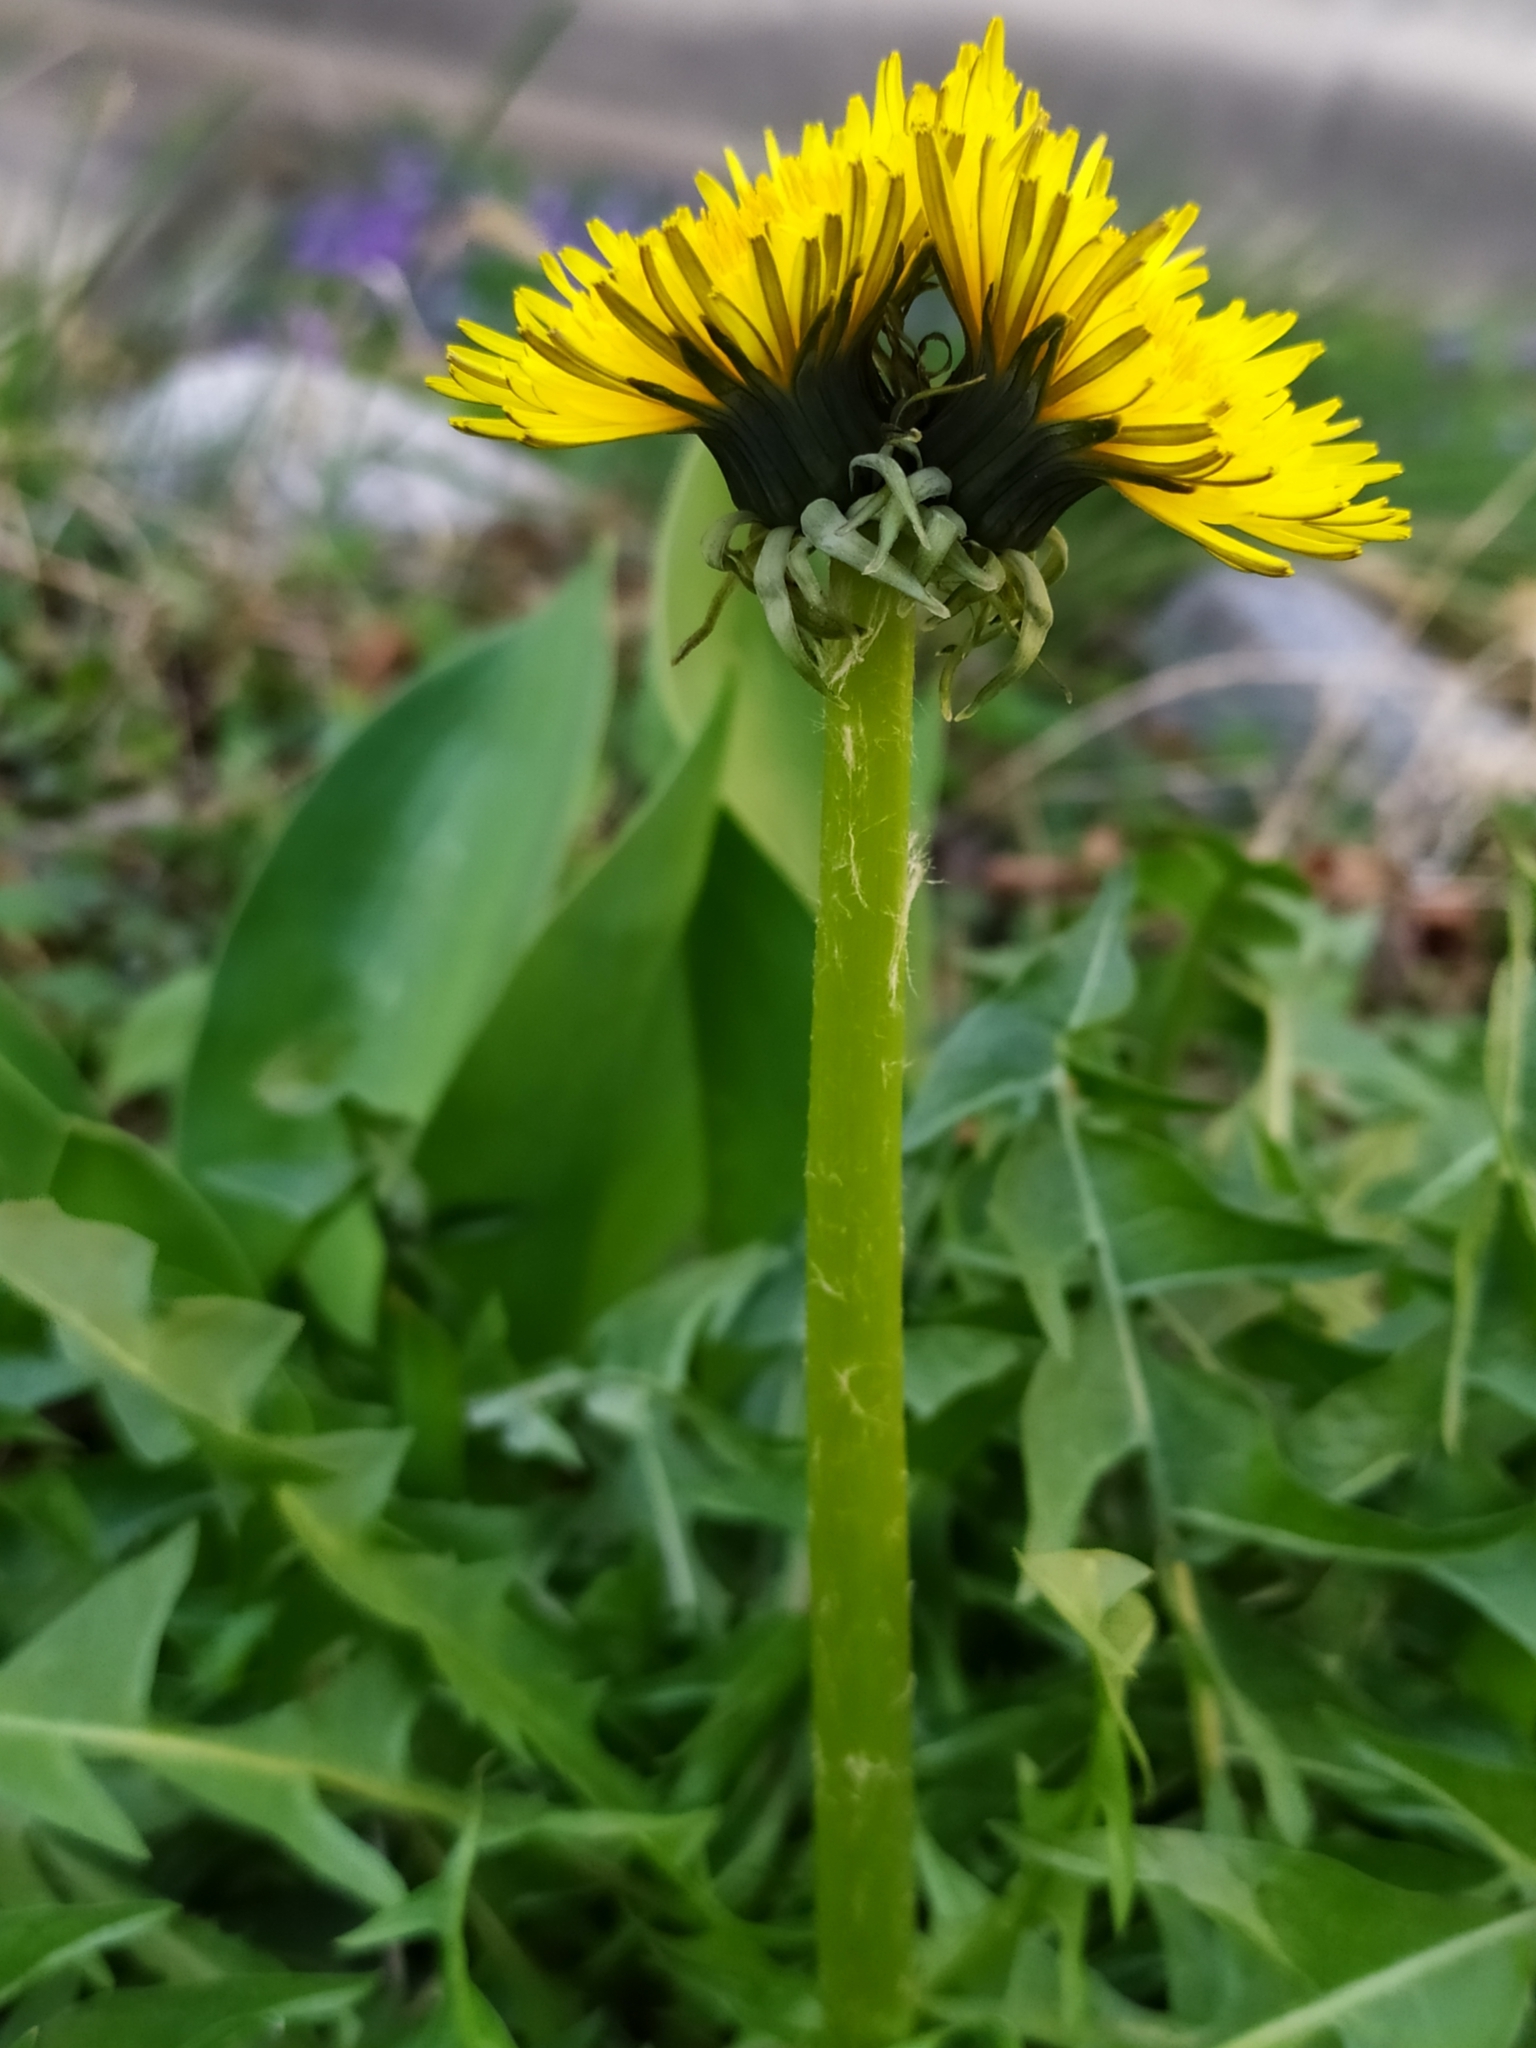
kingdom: Plantae
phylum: Tracheophyta
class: Magnoliopsida
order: Asterales
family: Asteraceae
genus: Taraxacum
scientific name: Taraxacum officinale
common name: Common dandelion
